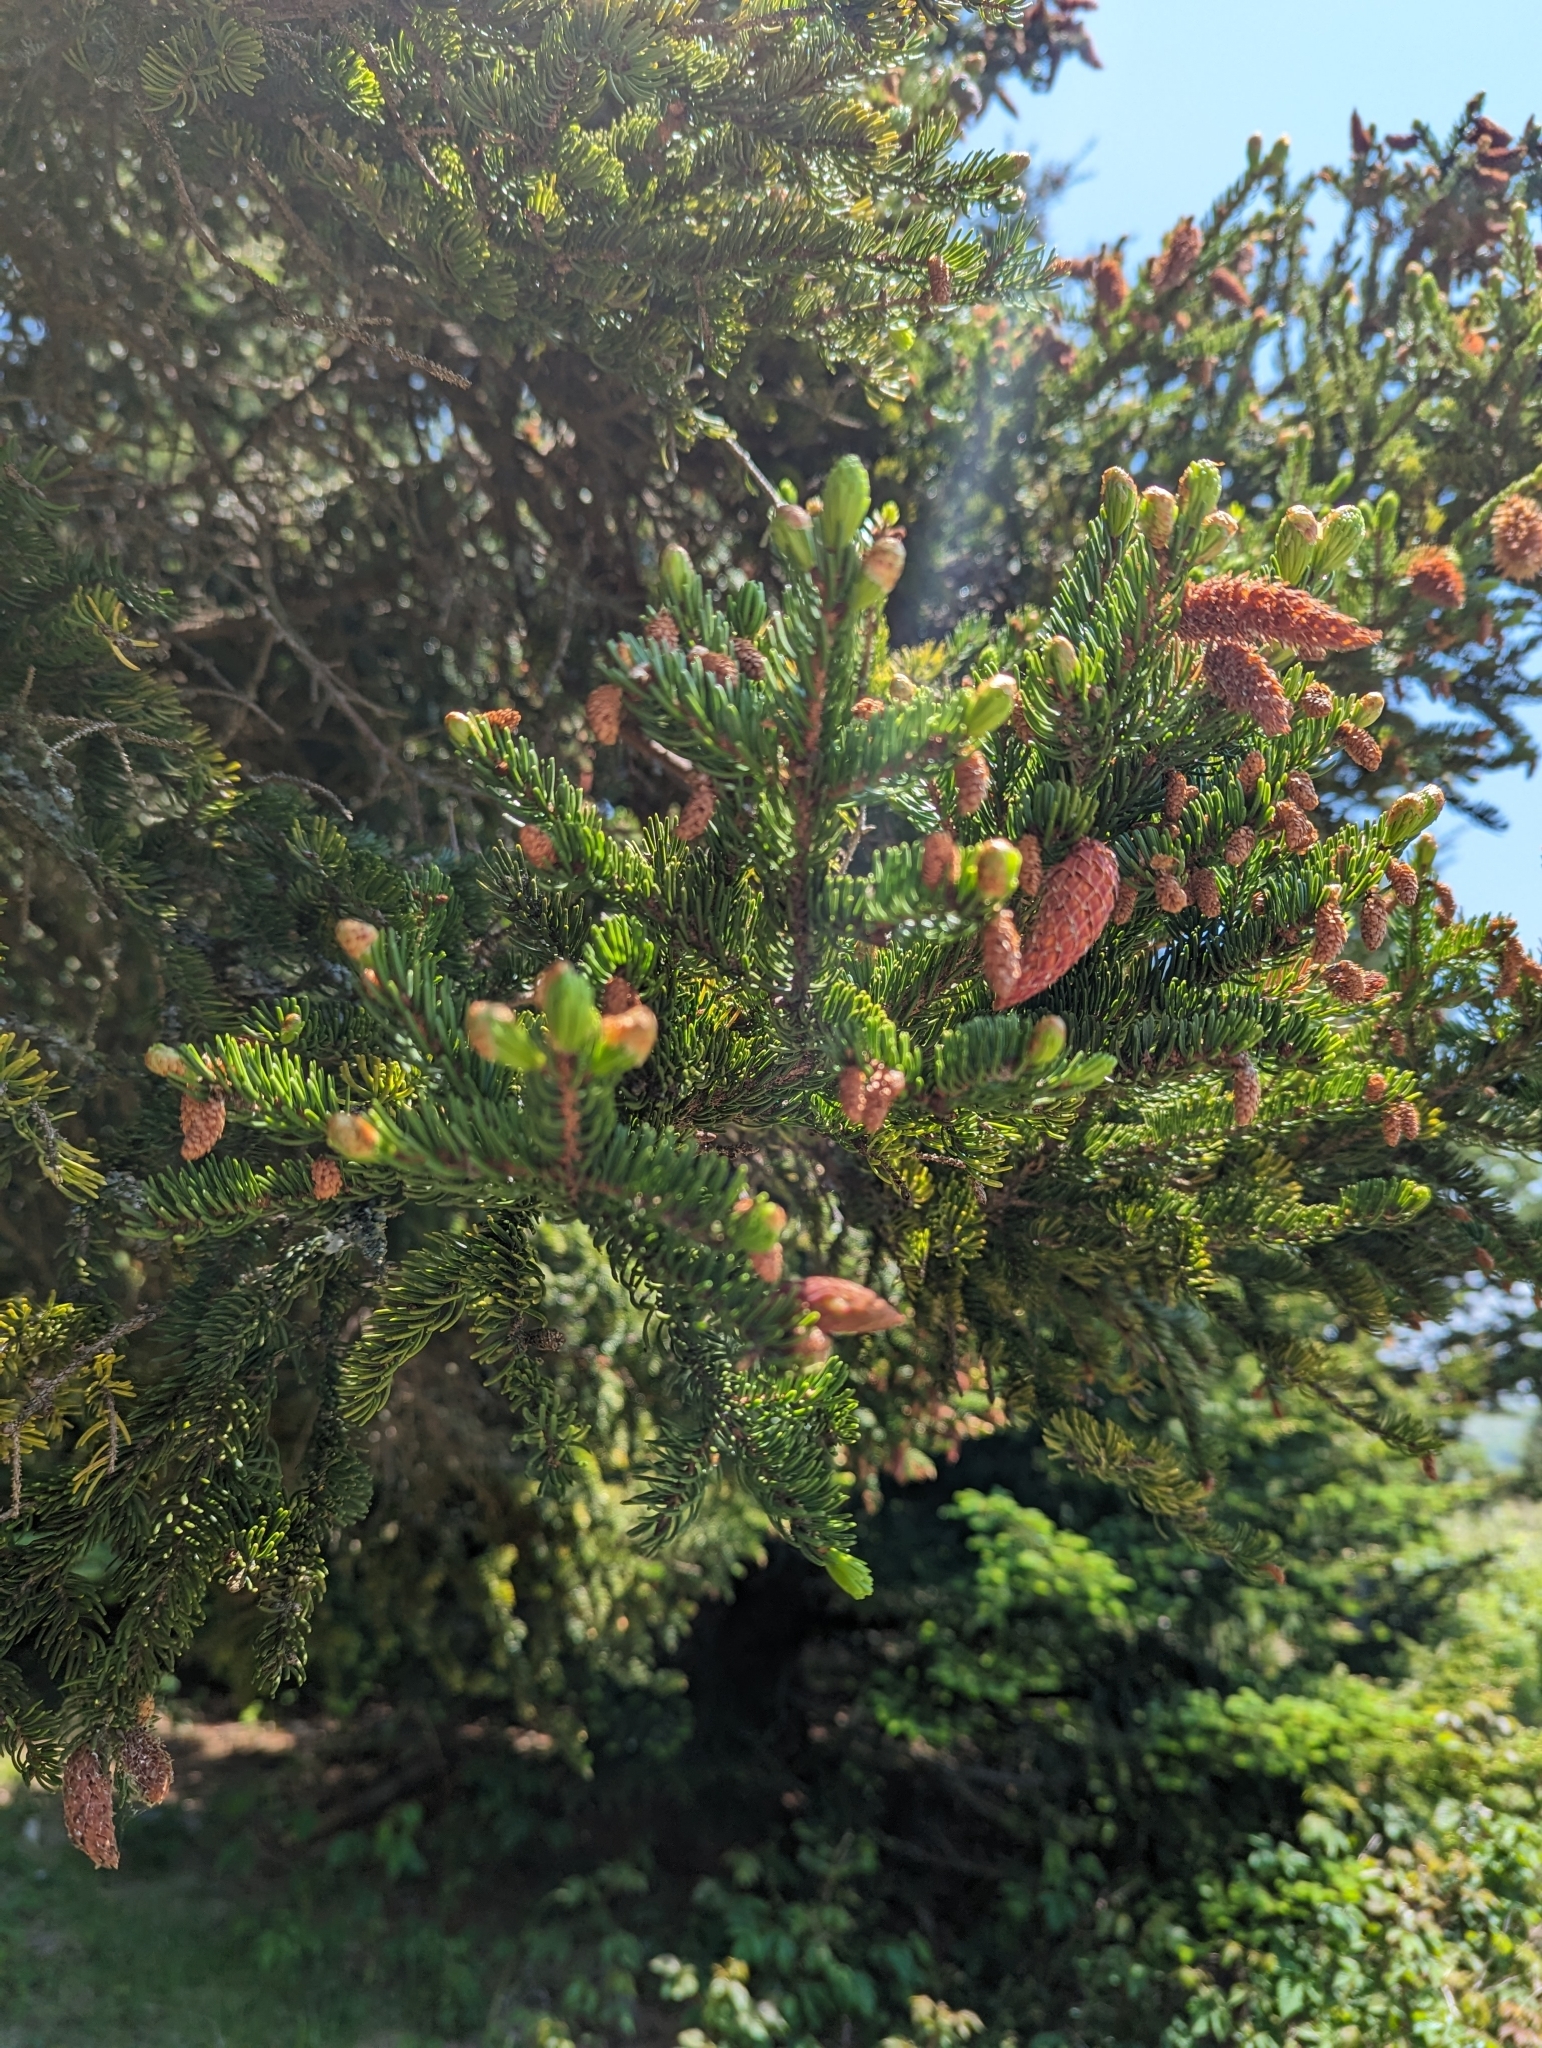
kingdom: Plantae
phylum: Tracheophyta
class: Pinopsida
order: Pinales
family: Pinaceae
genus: Picea
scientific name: Picea rubens
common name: Red spruce
